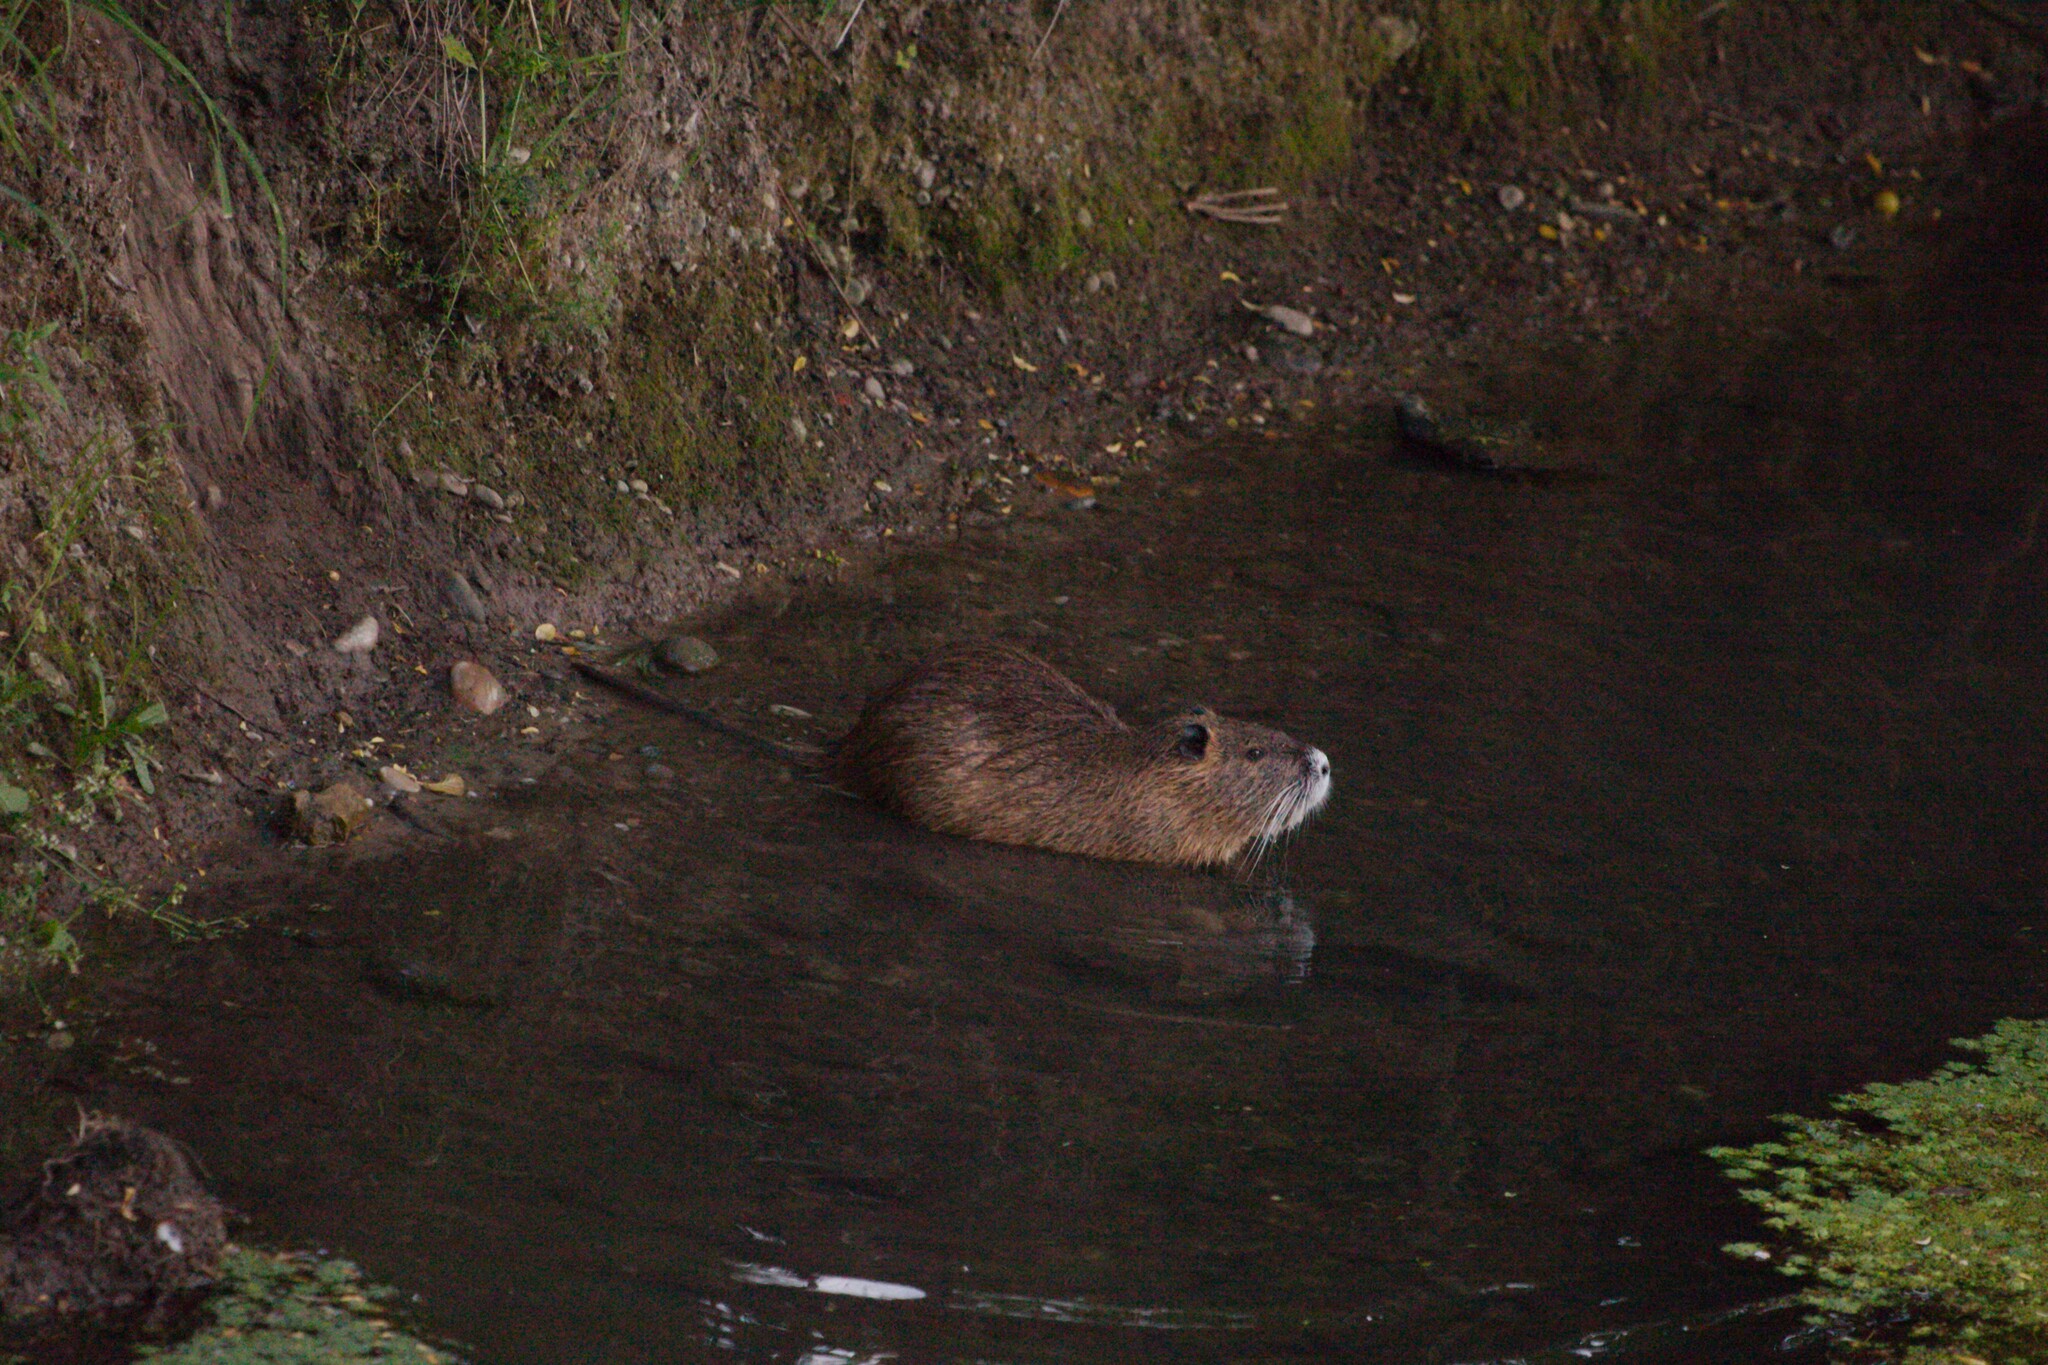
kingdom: Animalia
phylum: Chordata
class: Mammalia
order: Rodentia
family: Myocastoridae
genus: Myocastor
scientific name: Myocastor coypus
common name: Coypu
